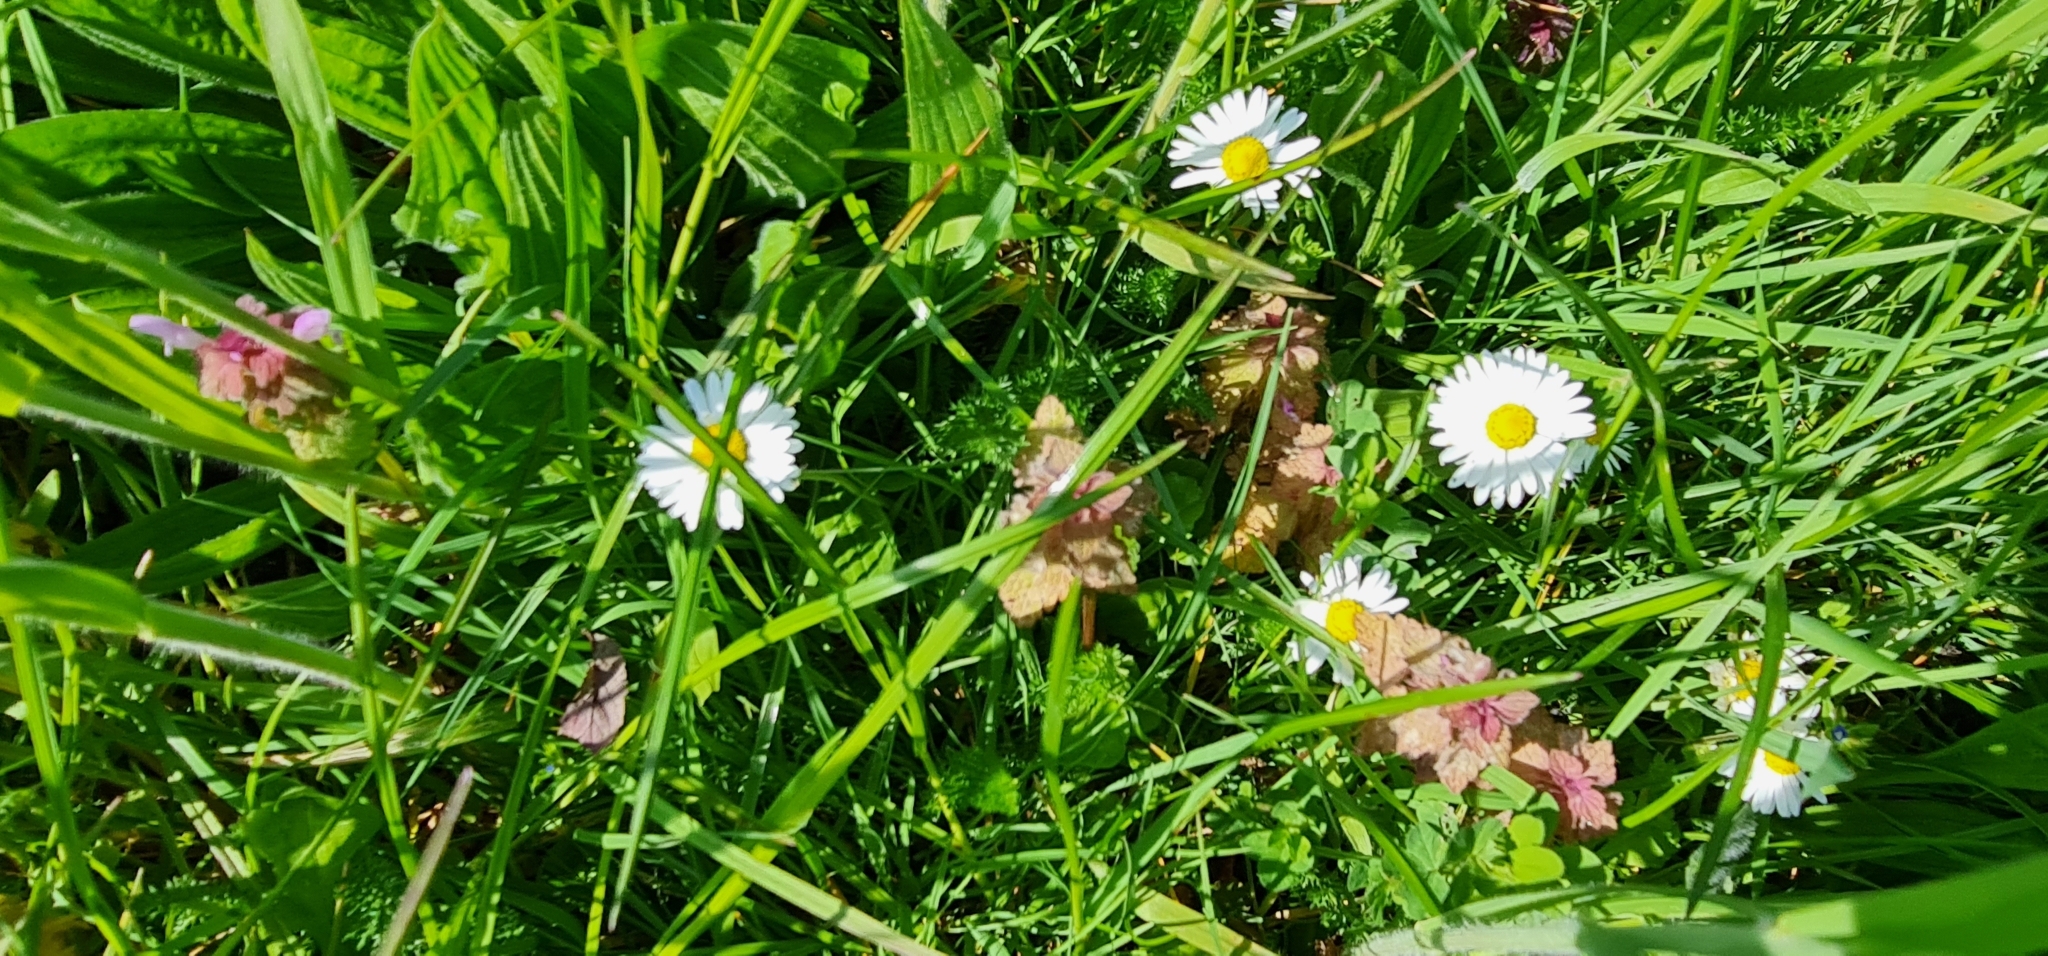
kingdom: Plantae
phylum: Tracheophyta
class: Magnoliopsida
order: Asterales
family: Asteraceae
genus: Bellis
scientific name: Bellis perennis
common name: Lawndaisy
